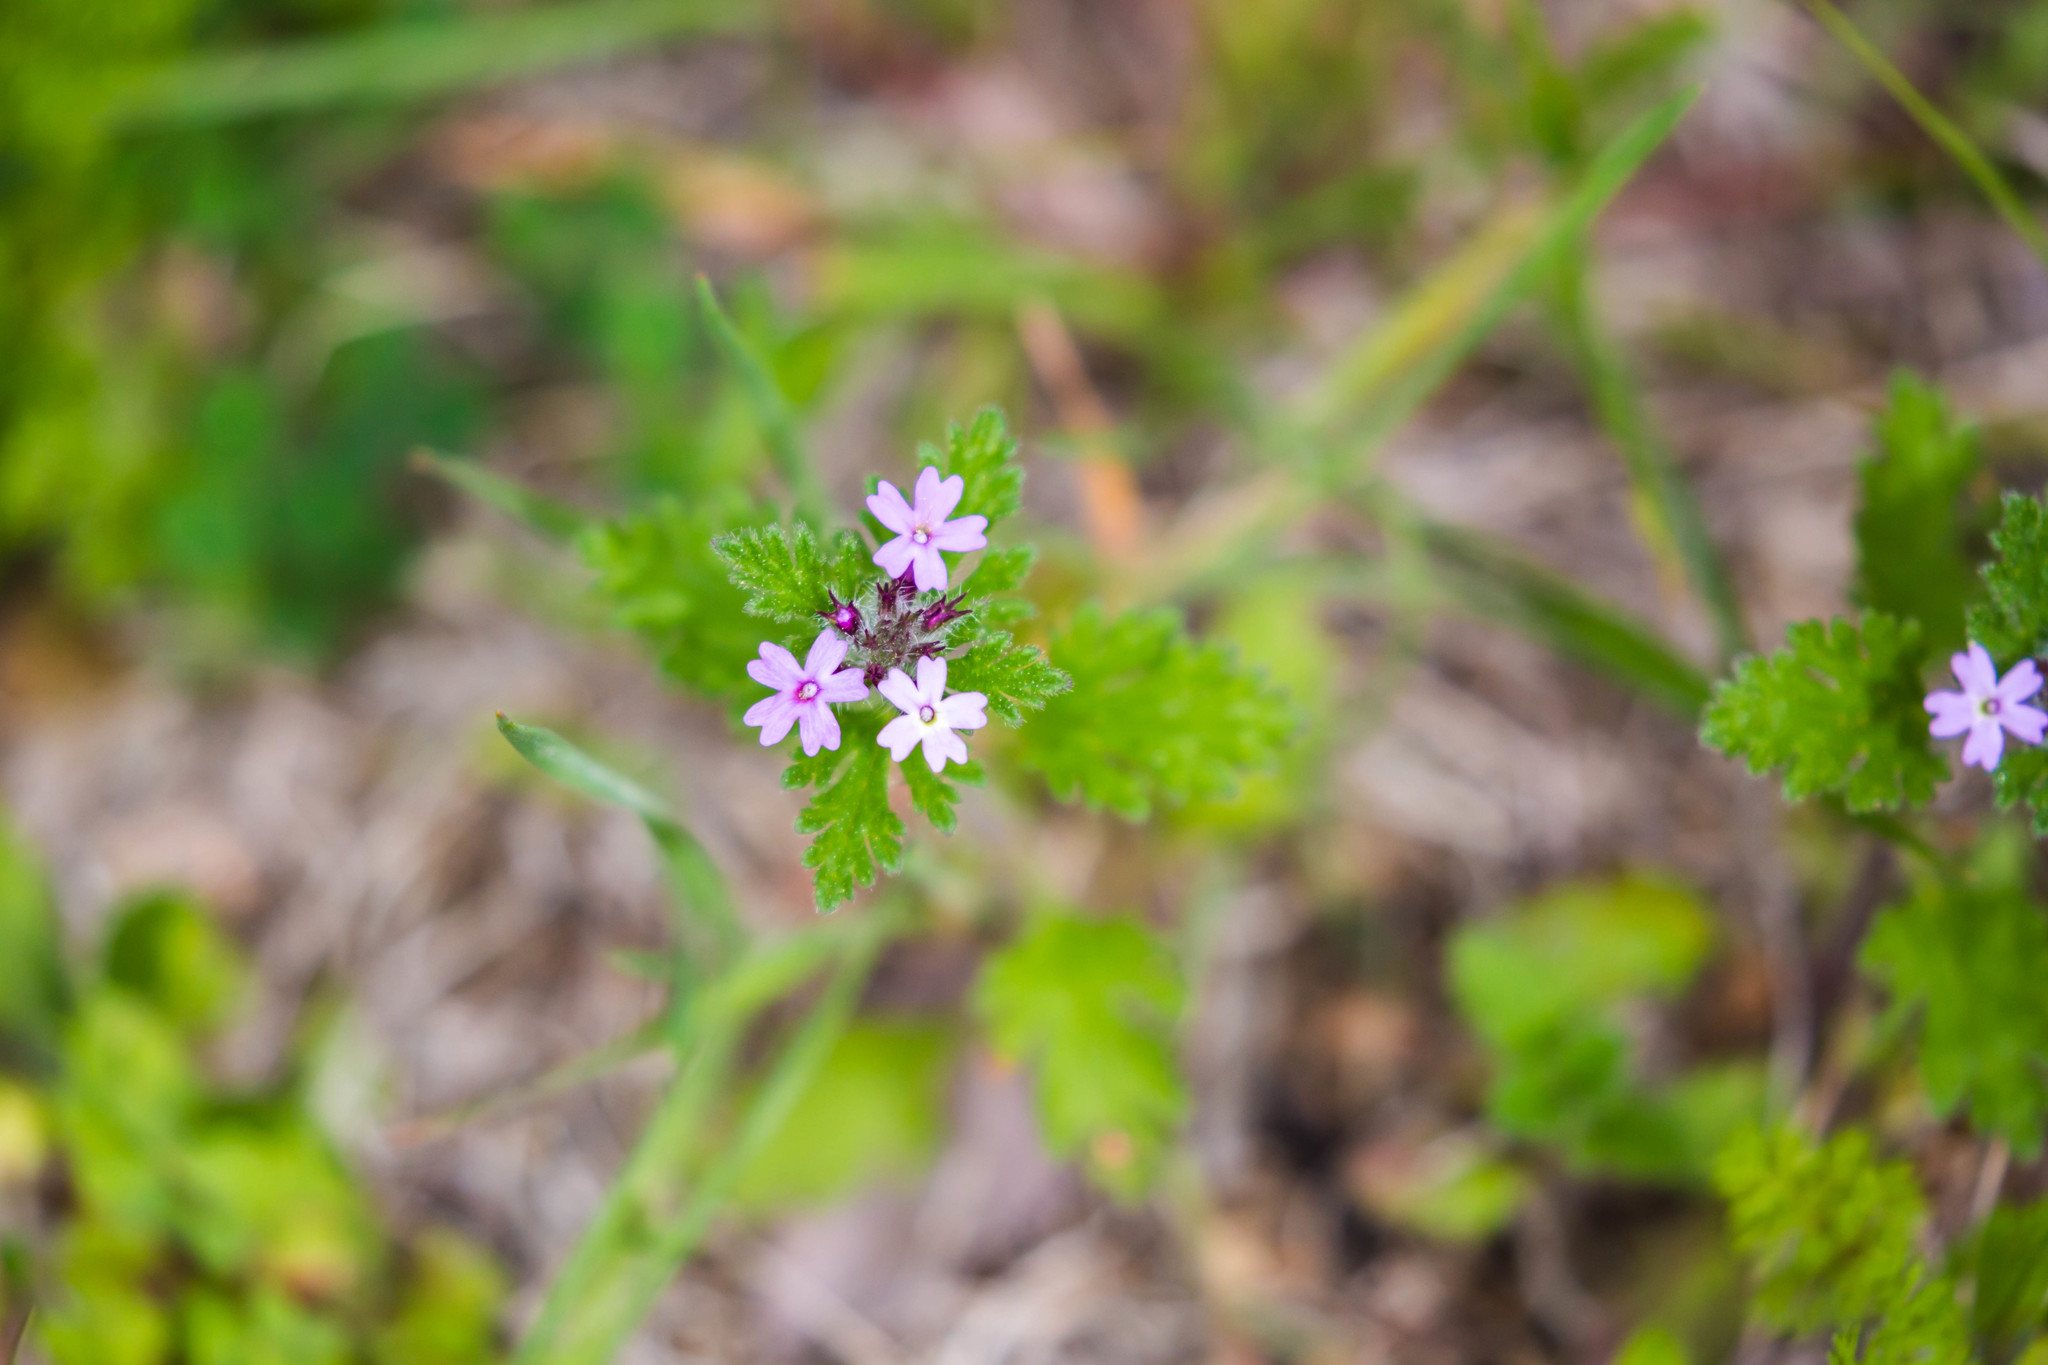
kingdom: Plantae
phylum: Tracheophyta
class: Magnoliopsida
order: Lamiales
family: Verbenaceae
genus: Verbena
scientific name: Verbena pumila
